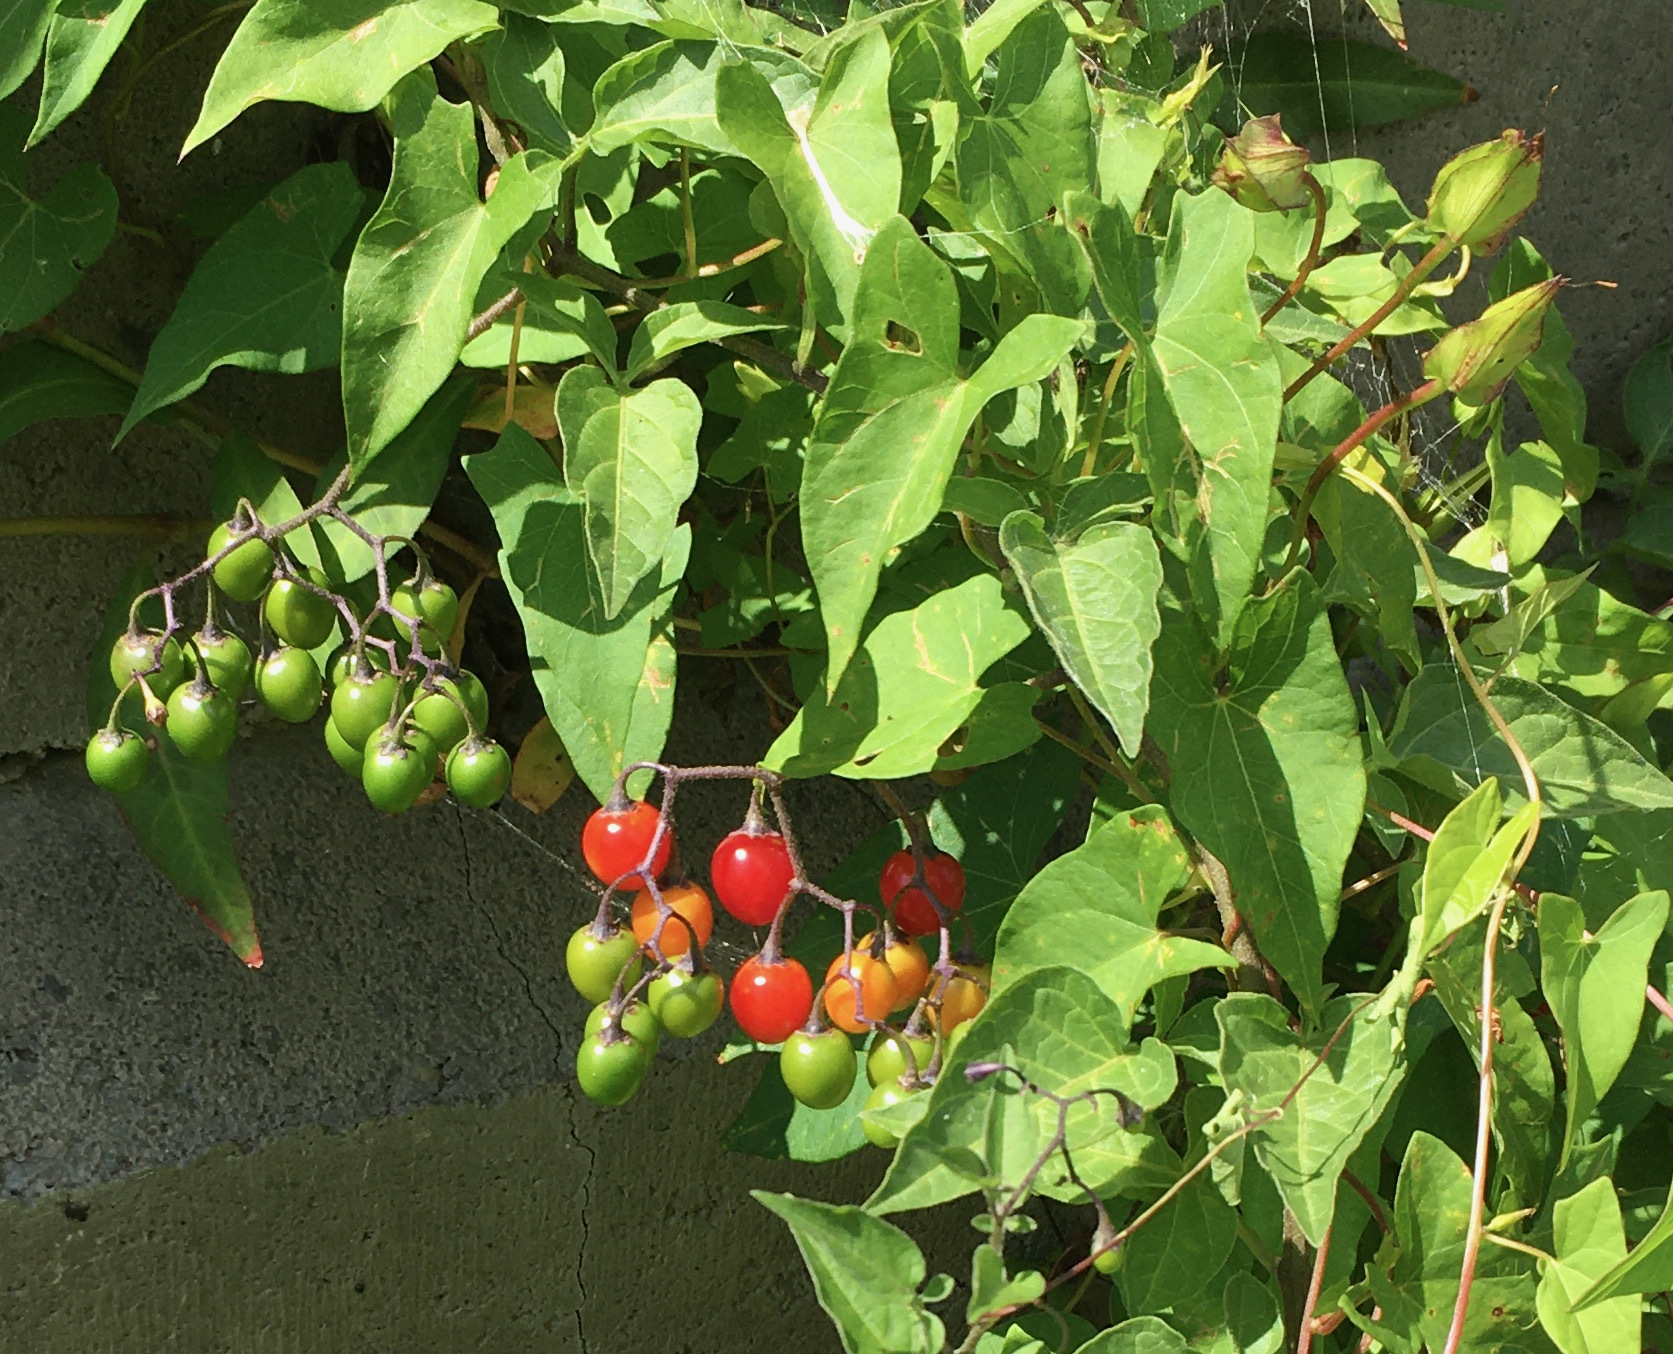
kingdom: Plantae
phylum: Tracheophyta
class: Magnoliopsida
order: Solanales
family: Solanaceae
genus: Solanum
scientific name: Solanum dulcamara
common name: Climbing nightshade
